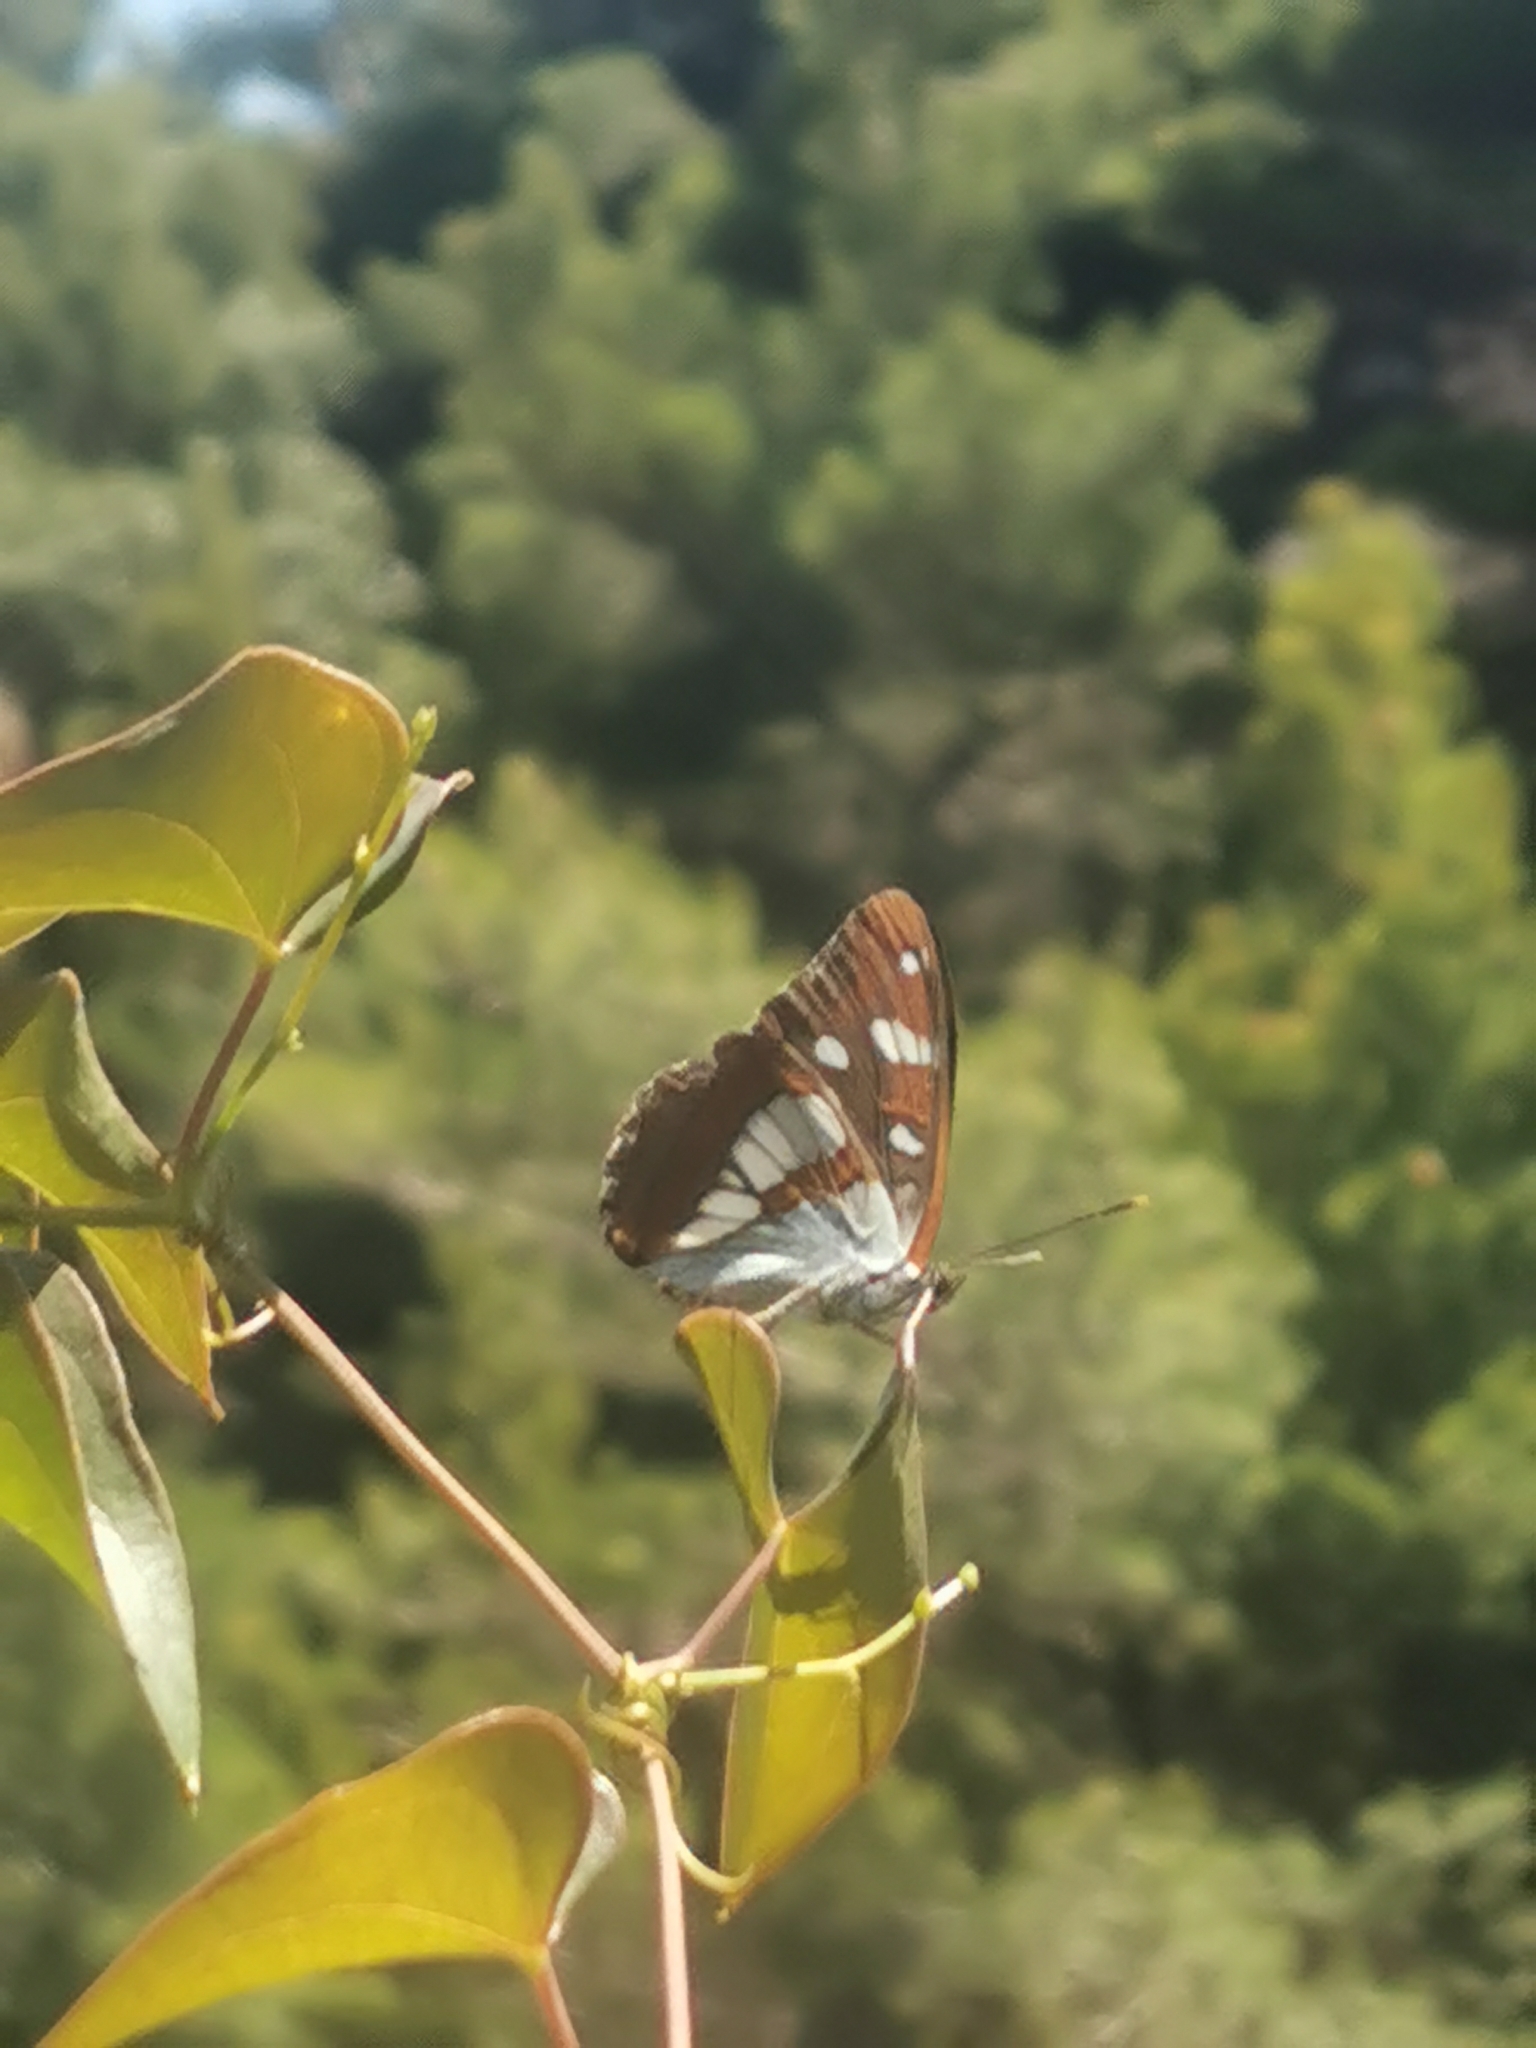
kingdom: Animalia
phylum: Arthropoda
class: Insecta
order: Lepidoptera
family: Nymphalidae
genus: Limenitis
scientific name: Limenitis reducta
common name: Southern white admiral
